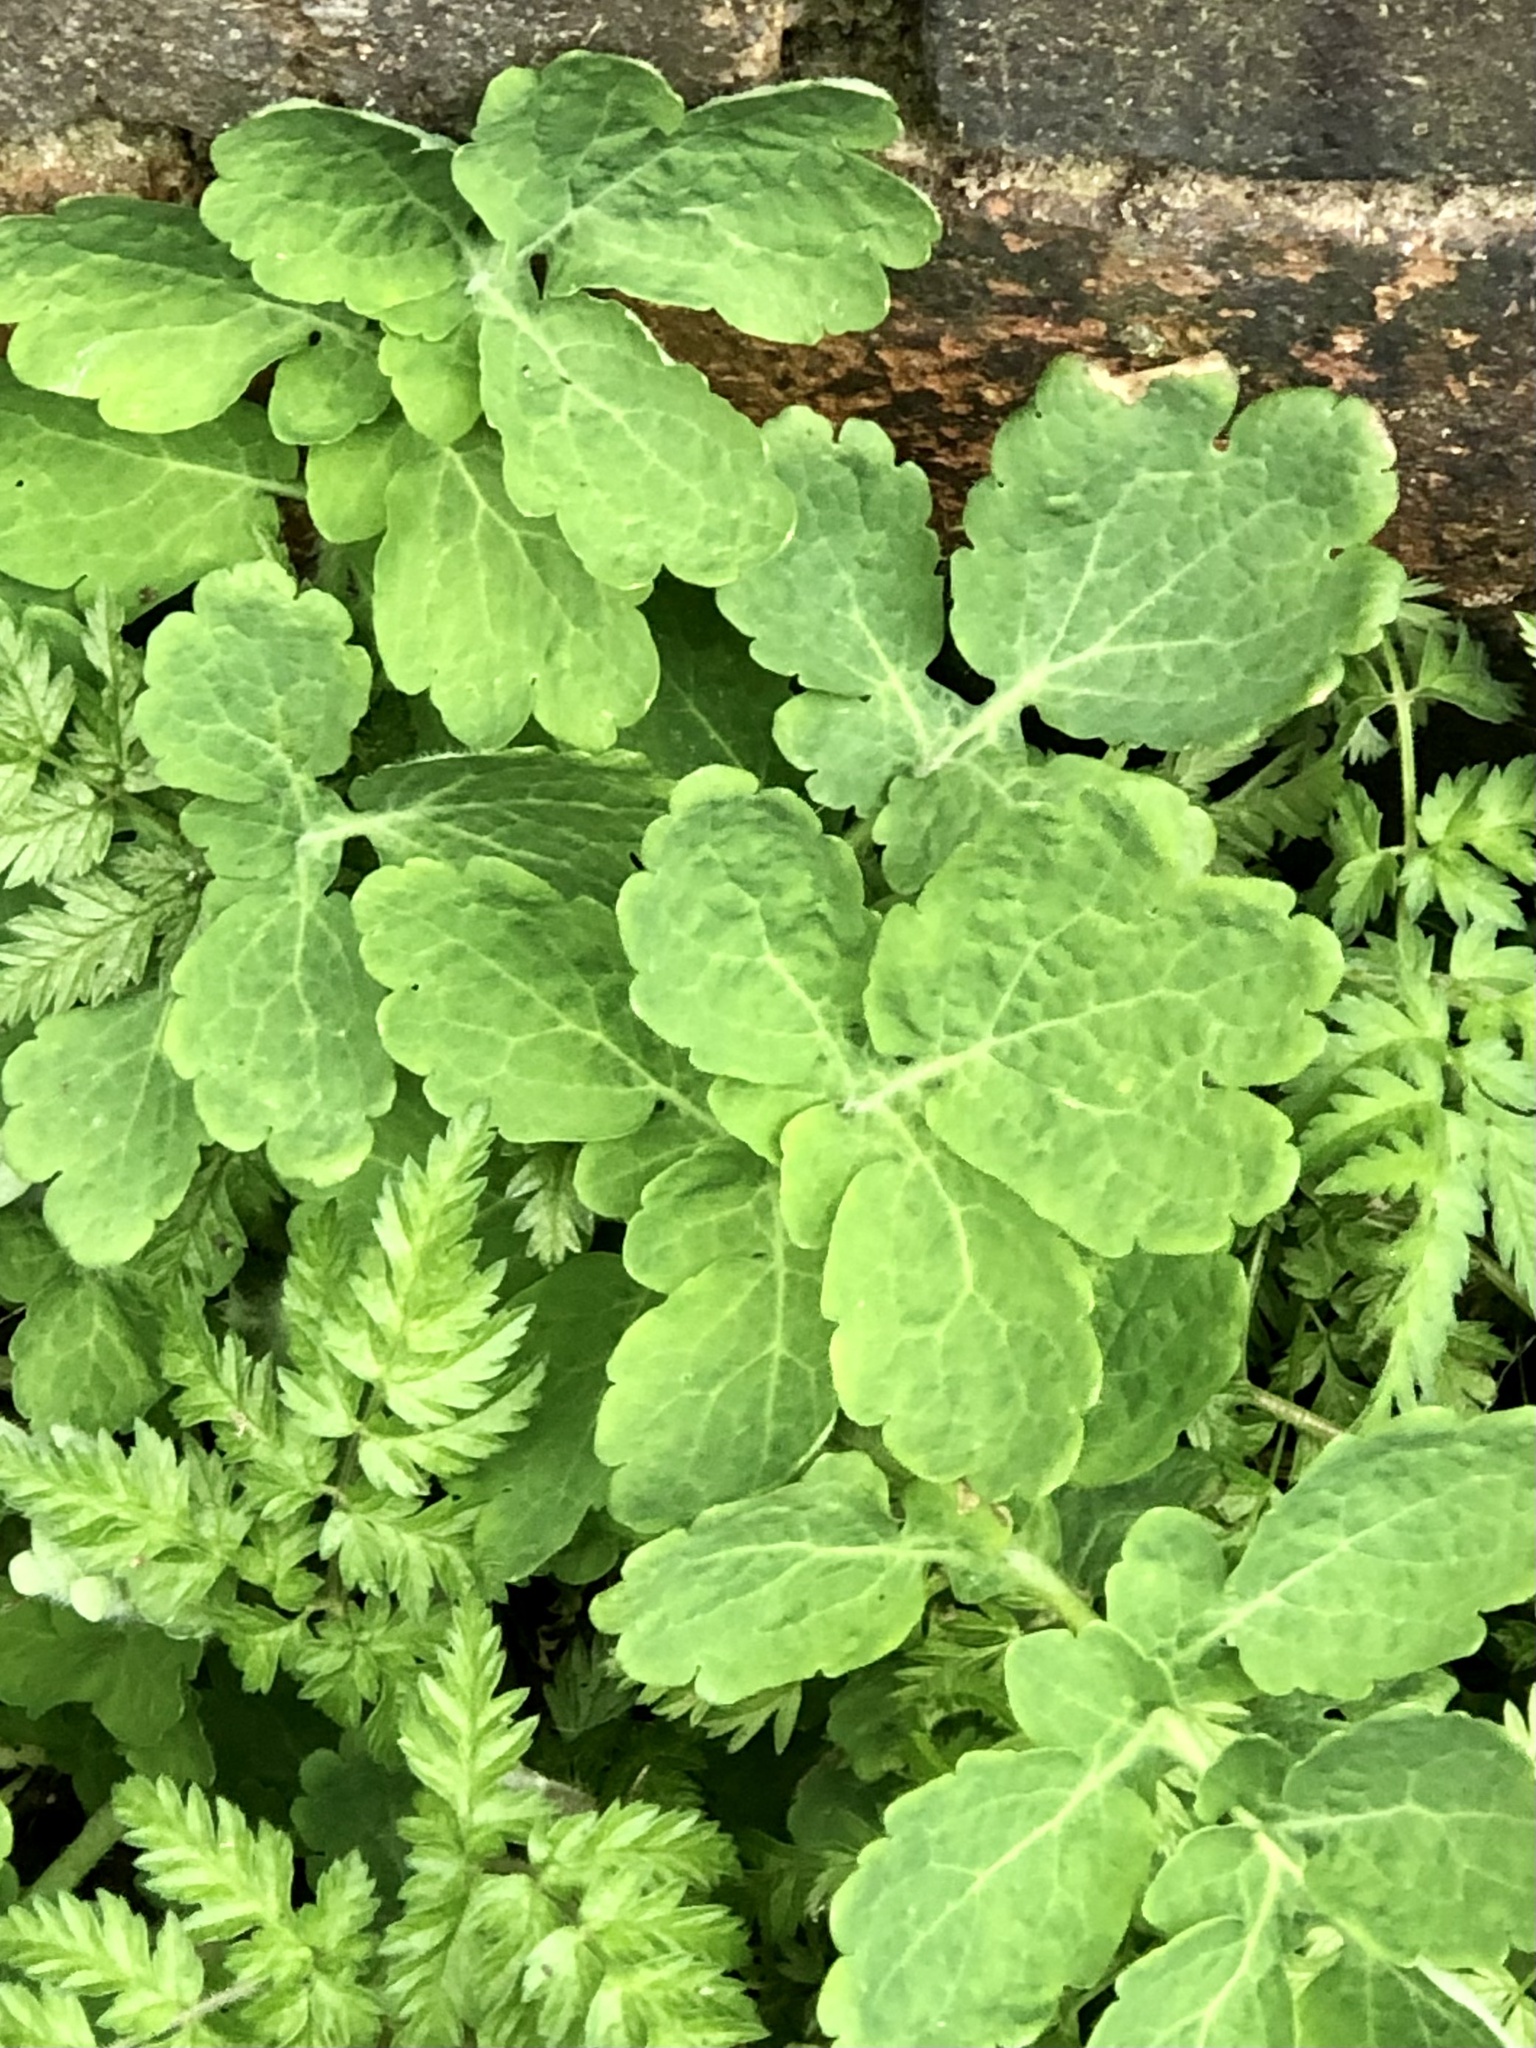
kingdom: Plantae
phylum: Tracheophyta
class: Magnoliopsida
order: Ranunculales
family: Papaveraceae
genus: Chelidonium
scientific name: Chelidonium majus
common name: Greater celandine
